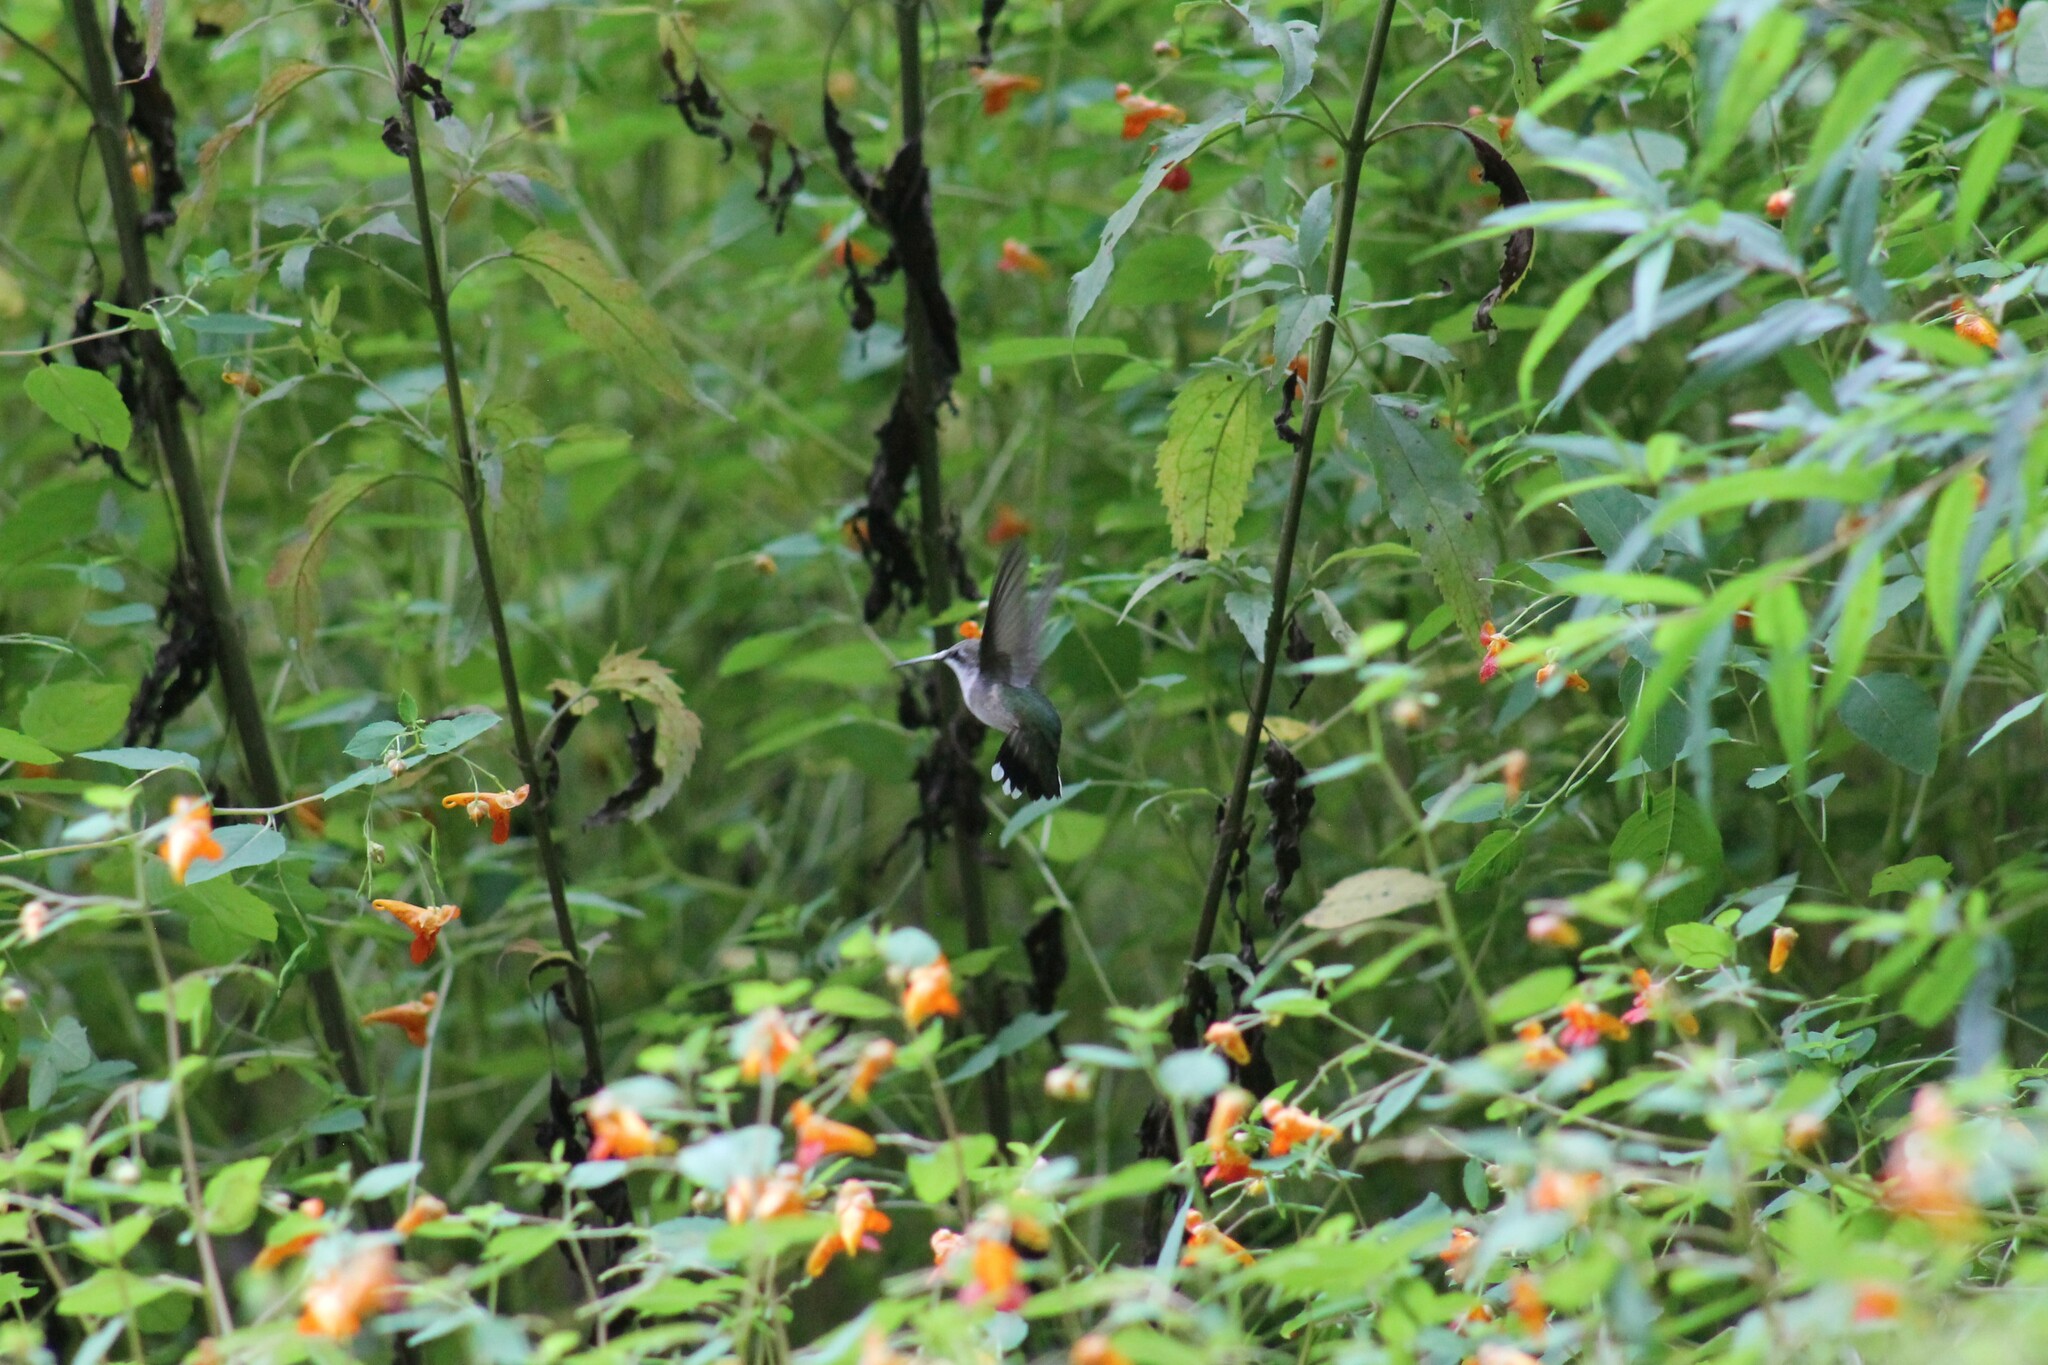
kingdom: Animalia
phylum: Chordata
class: Aves
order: Apodiformes
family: Trochilidae
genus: Archilochus
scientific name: Archilochus colubris
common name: Ruby-throated hummingbird
